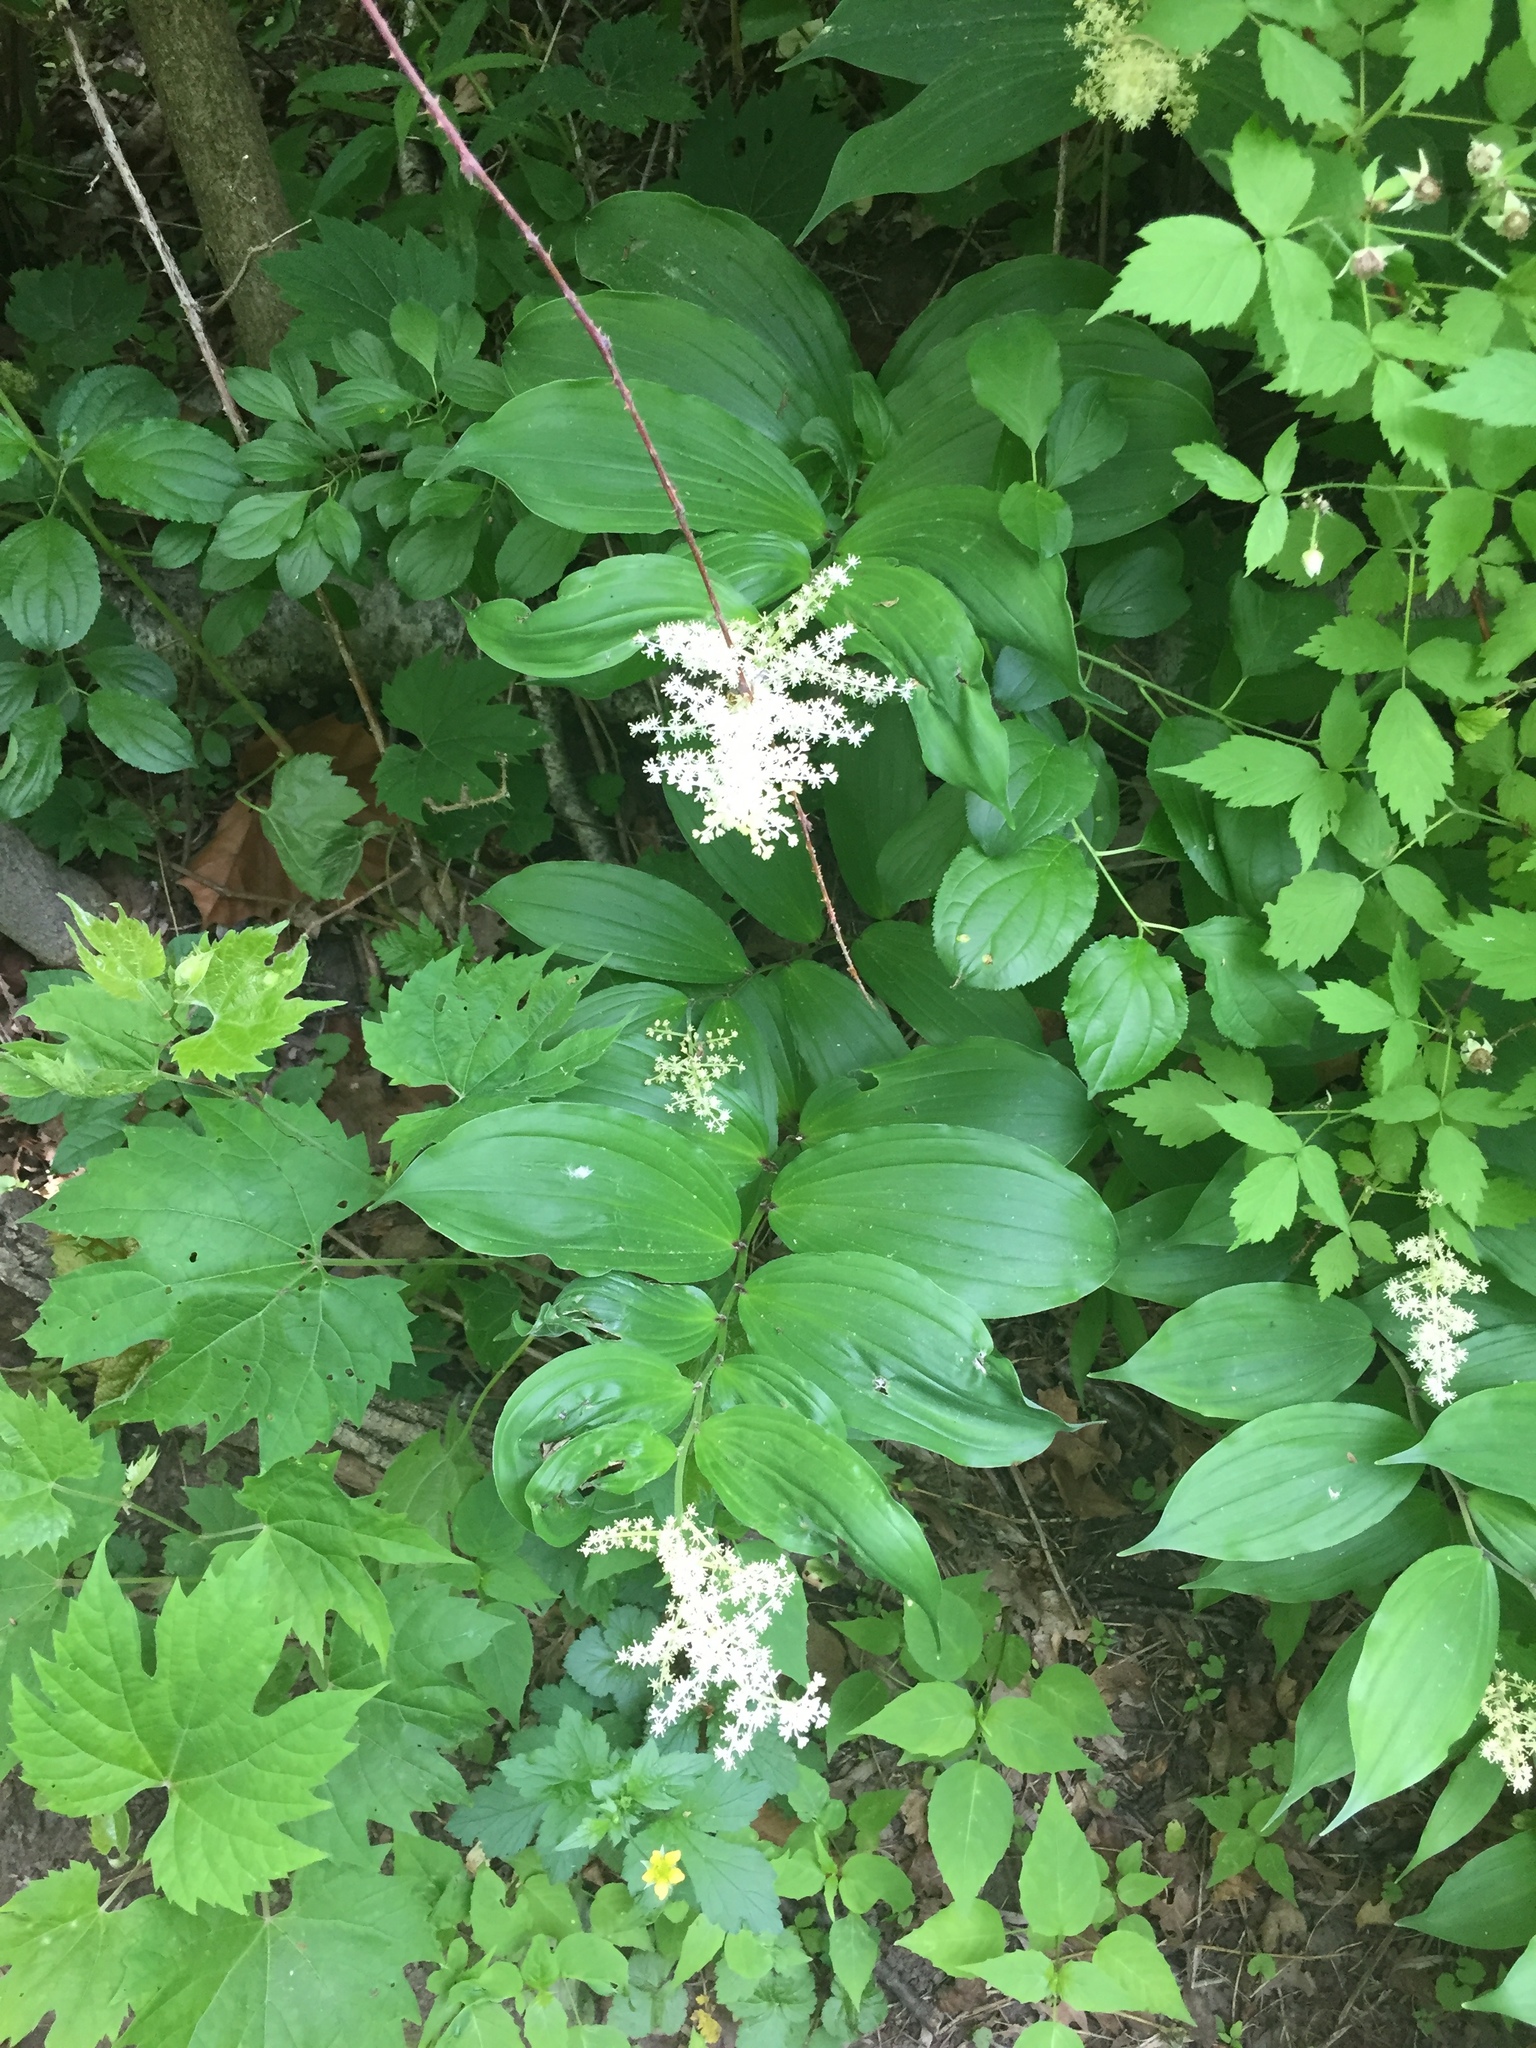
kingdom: Plantae
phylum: Tracheophyta
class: Liliopsida
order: Asparagales
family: Asparagaceae
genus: Maianthemum
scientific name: Maianthemum racemosum
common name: False spikenard
